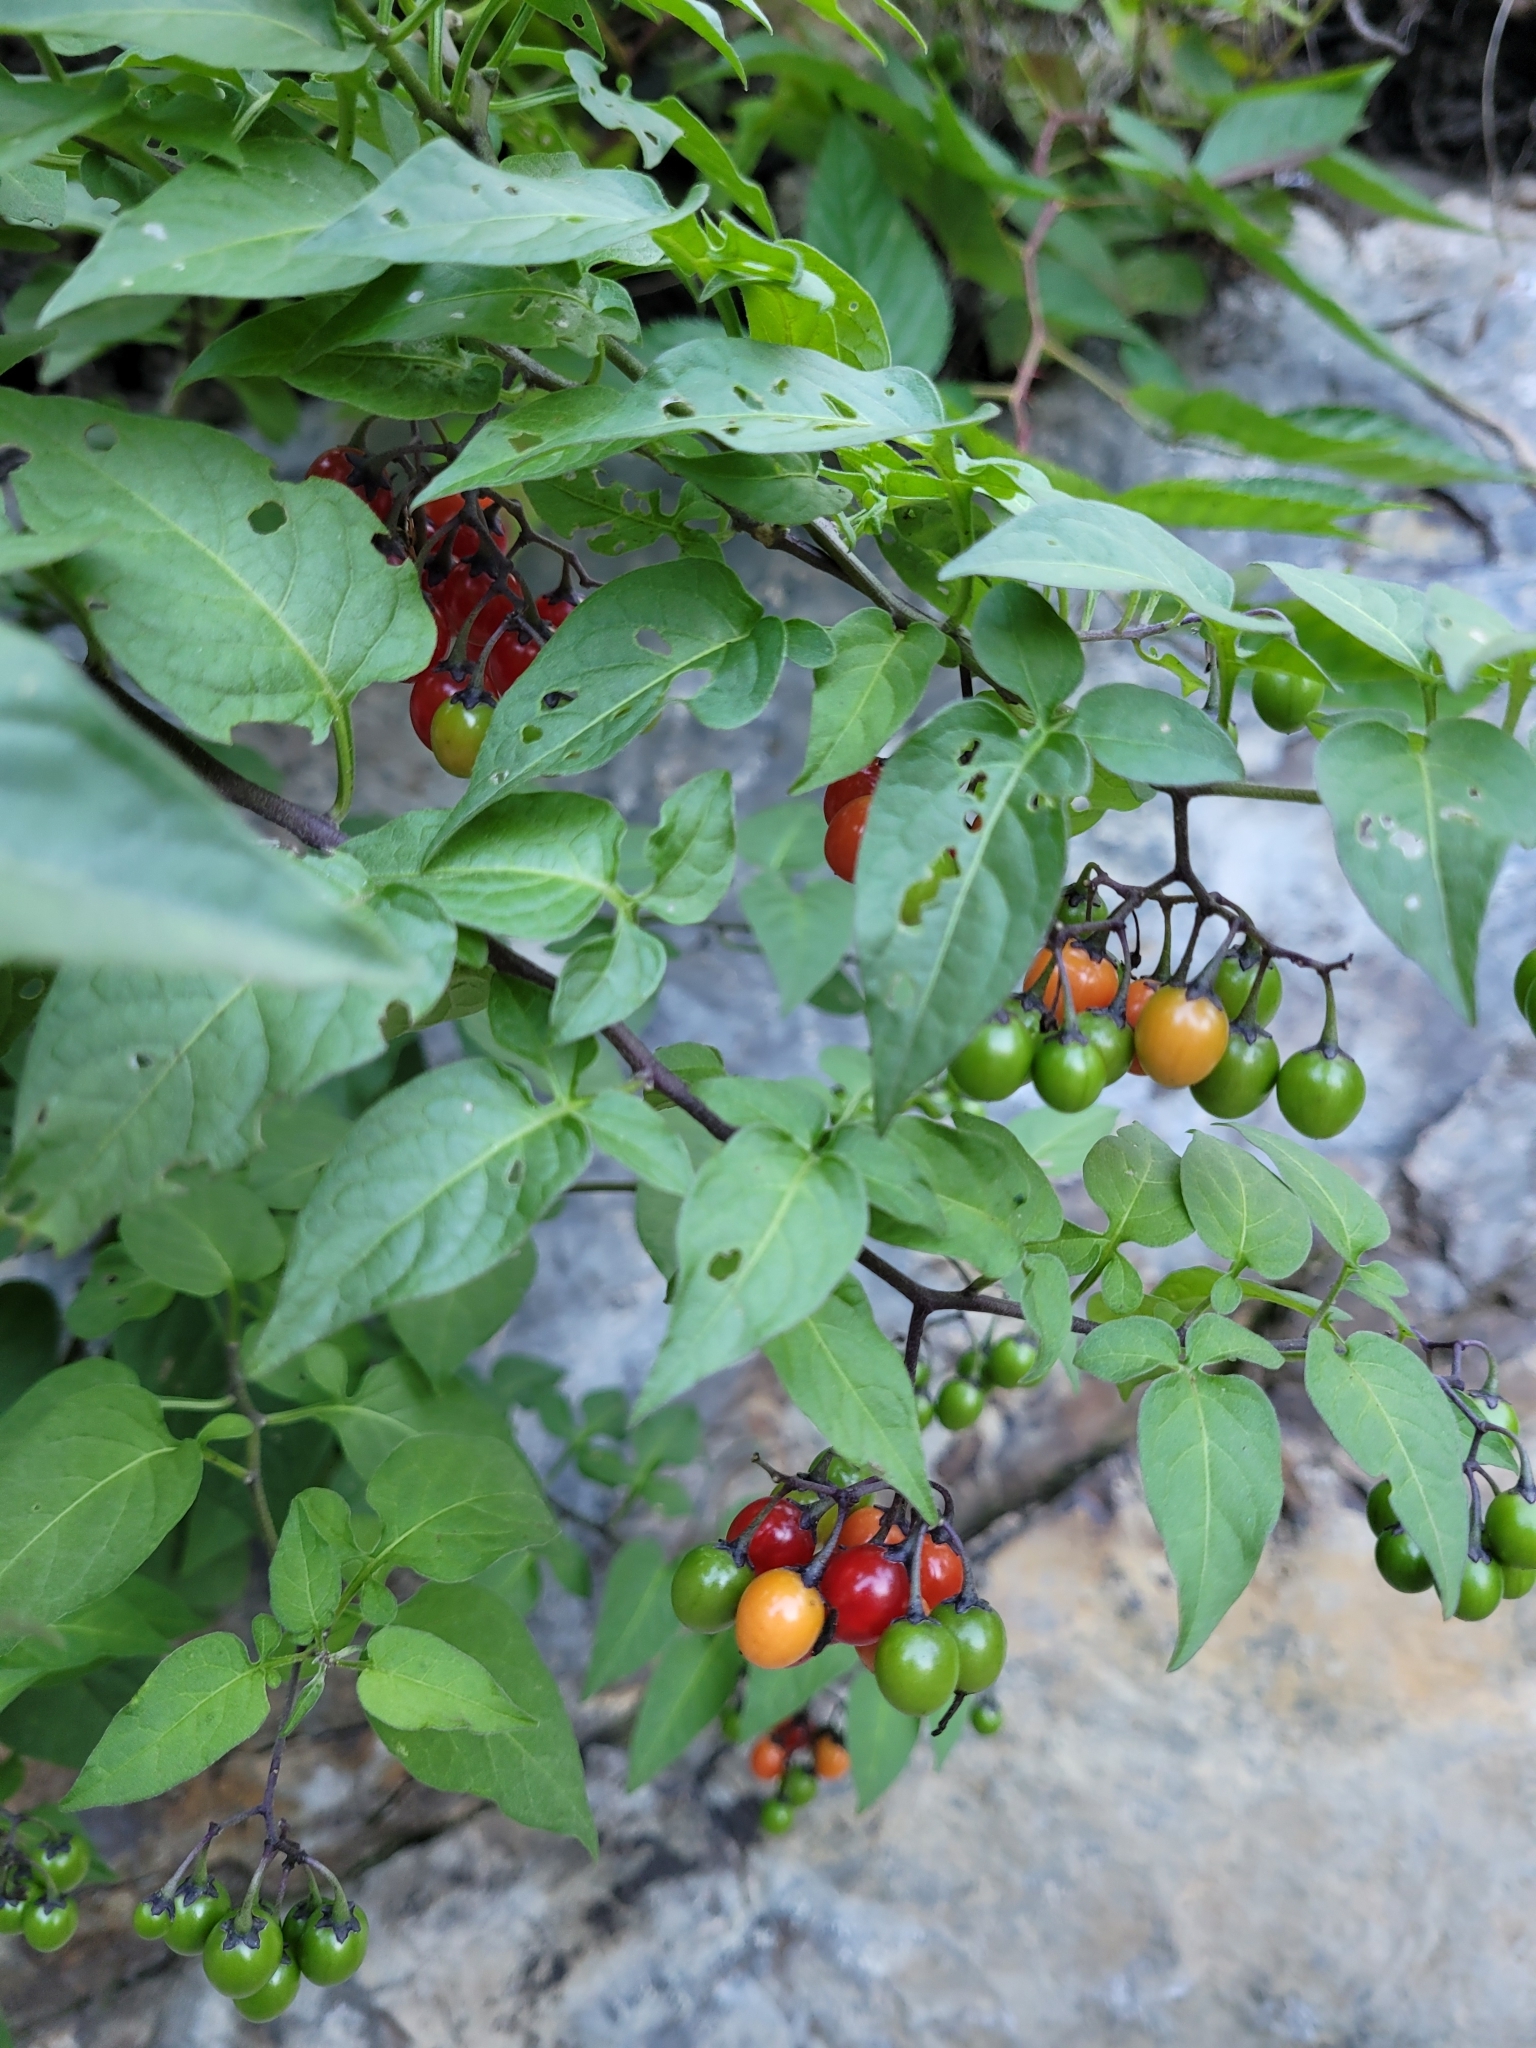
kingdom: Plantae
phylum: Tracheophyta
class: Magnoliopsida
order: Solanales
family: Solanaceae
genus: Solanum
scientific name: Solanum dulcamara
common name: Climbing nightshade
